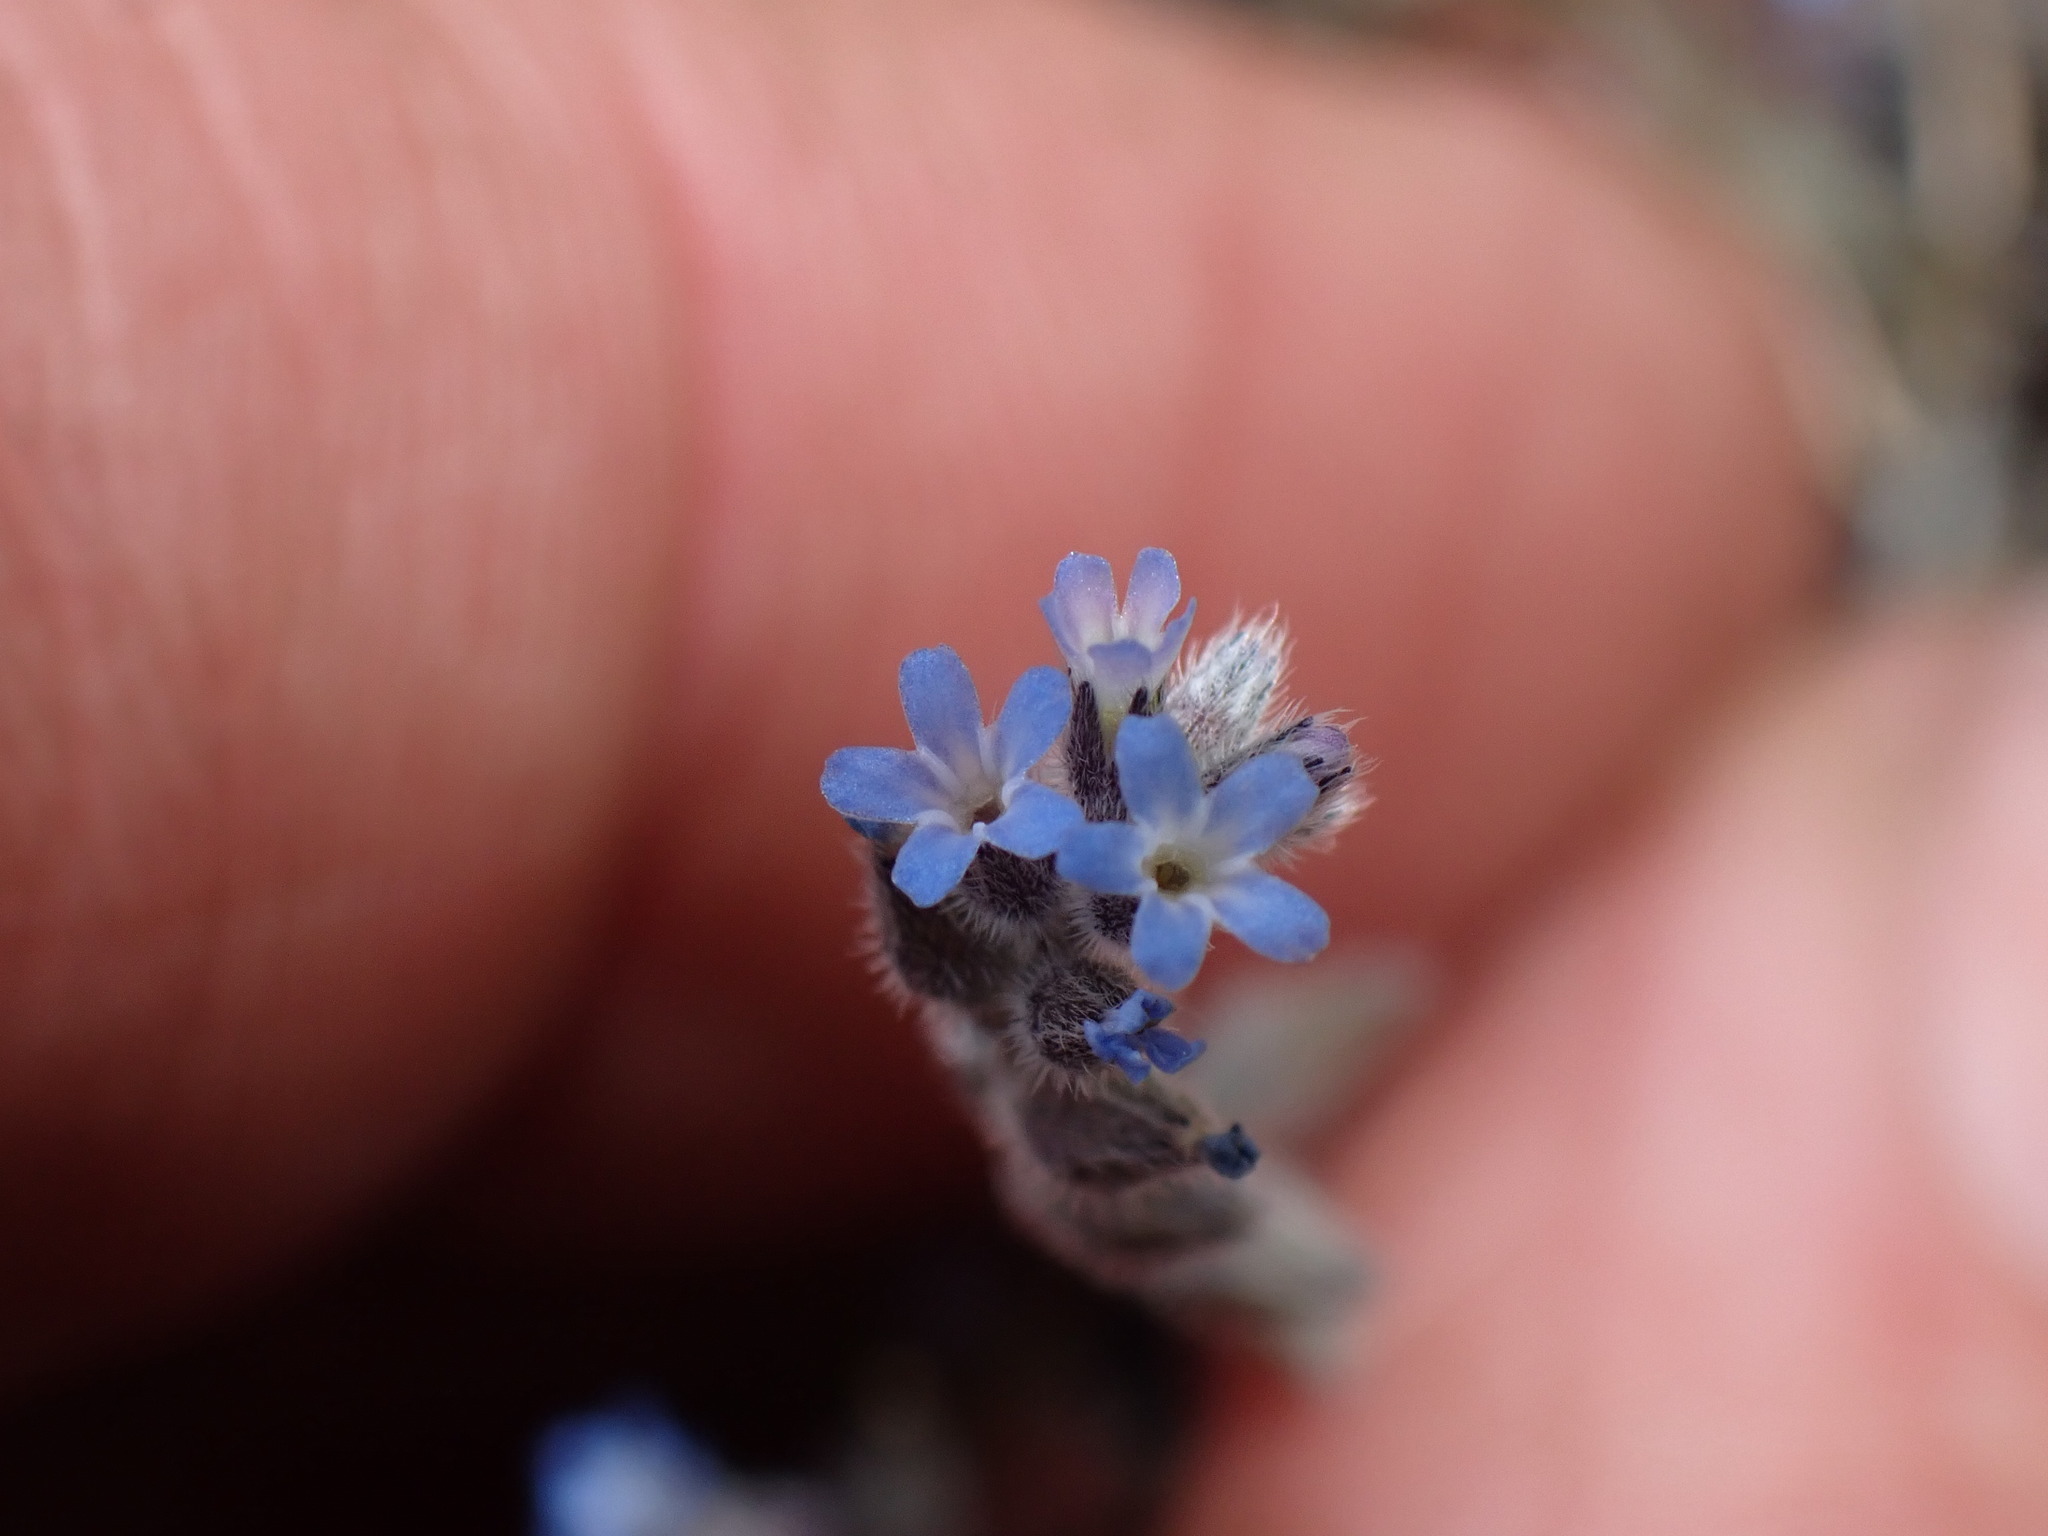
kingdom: Plantae
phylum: Tracheophyta
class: Magnoliopsida
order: Boraginales
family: Boraginaceae
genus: Myosotis
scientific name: Myosotis stricta
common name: Strict forget-me-not
